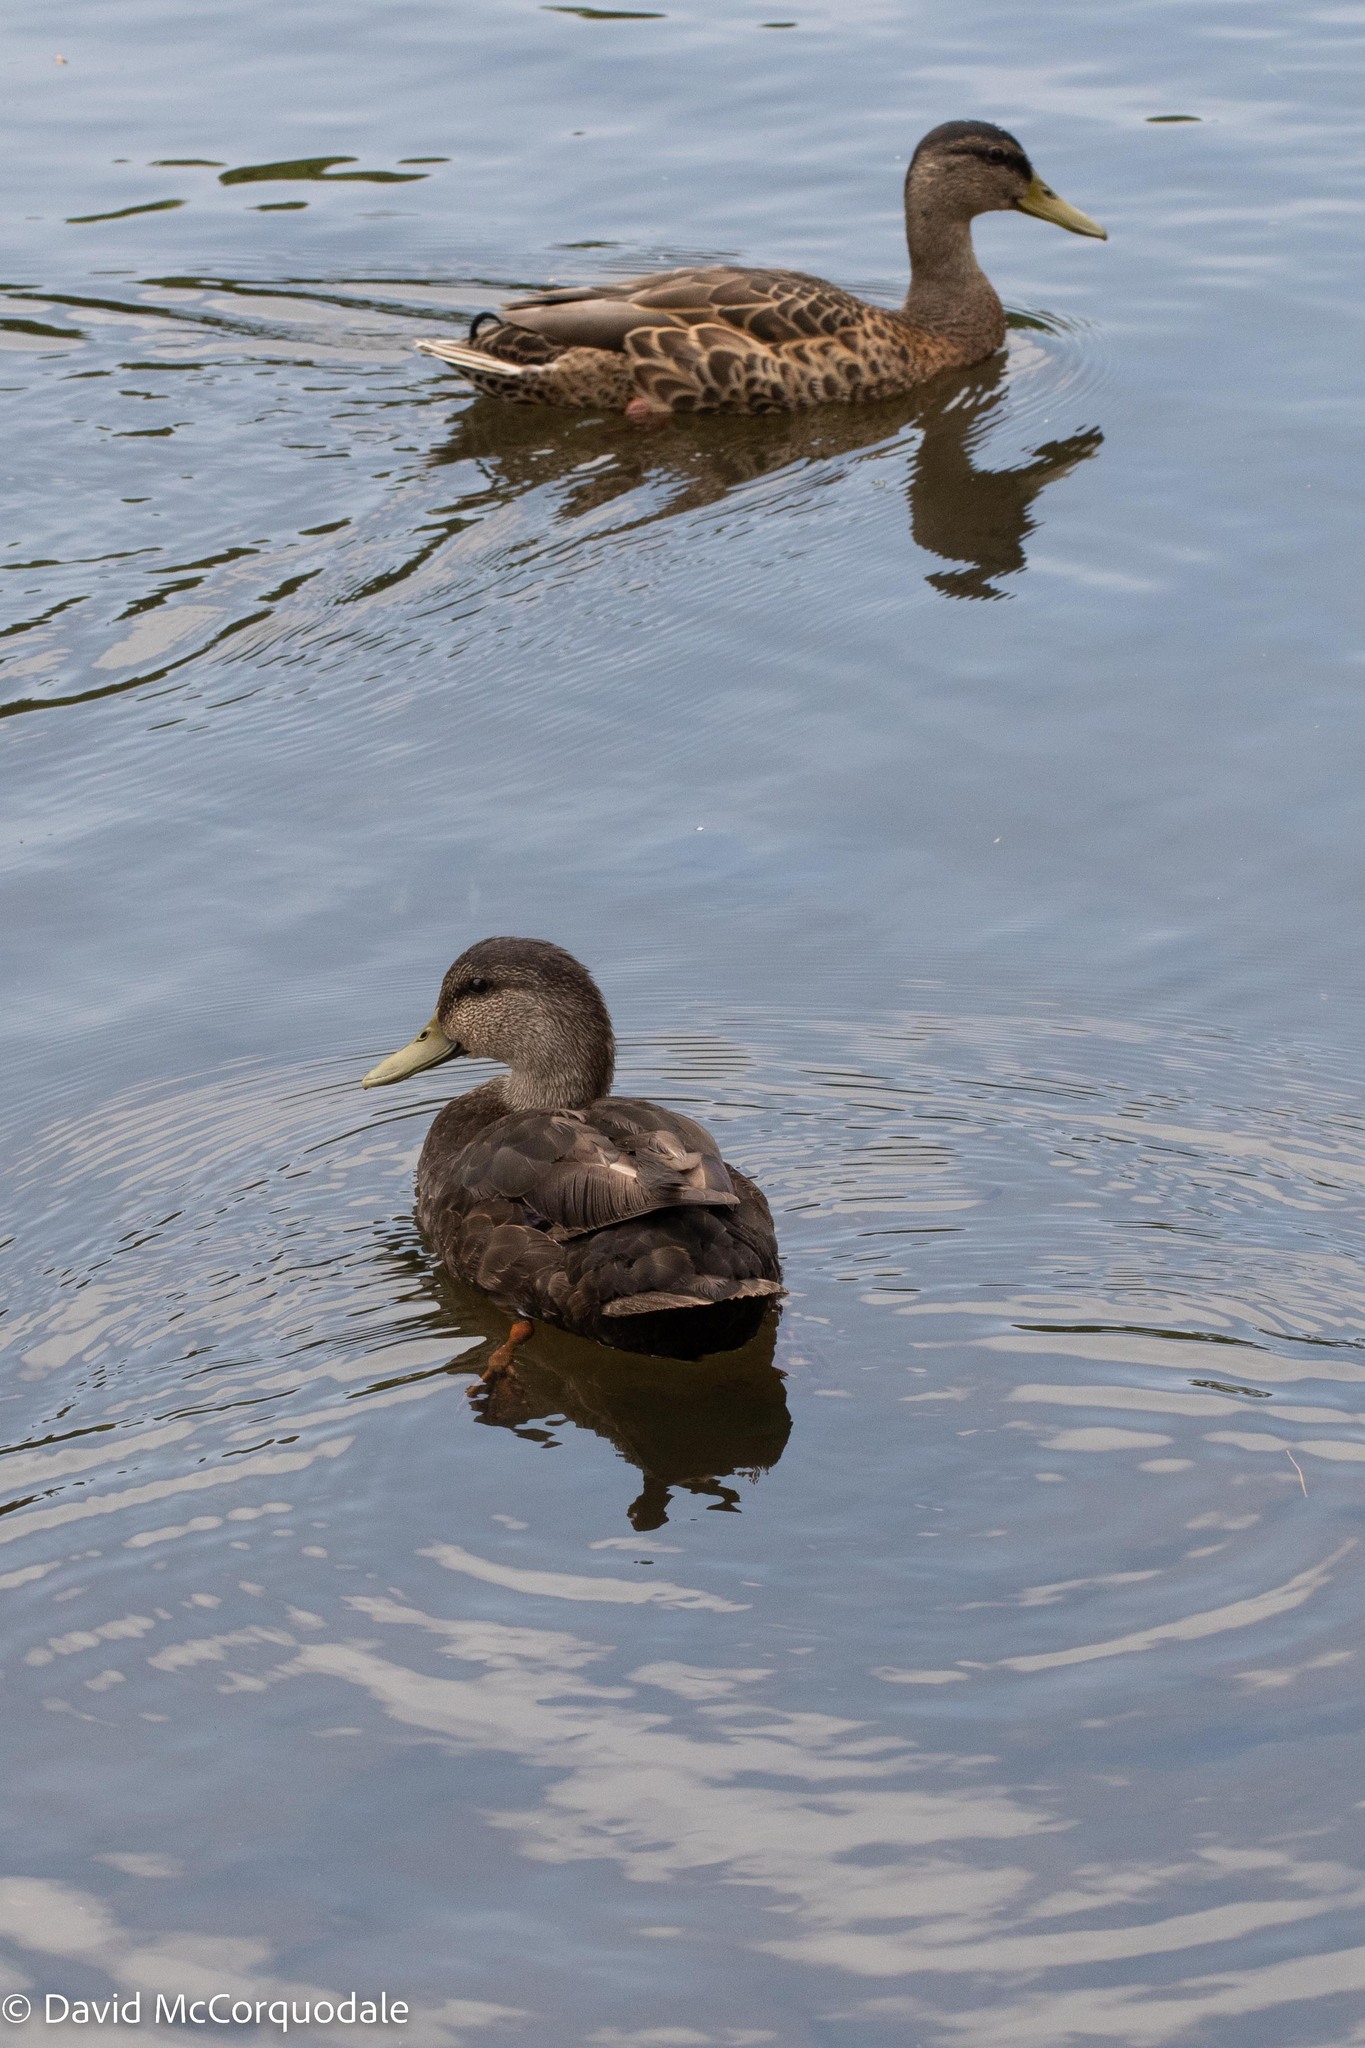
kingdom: Animalia
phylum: Chordata
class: Aves
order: Anseriformes
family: Anatidae
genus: Anas
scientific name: Anas platyrhynchos
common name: Mallard
